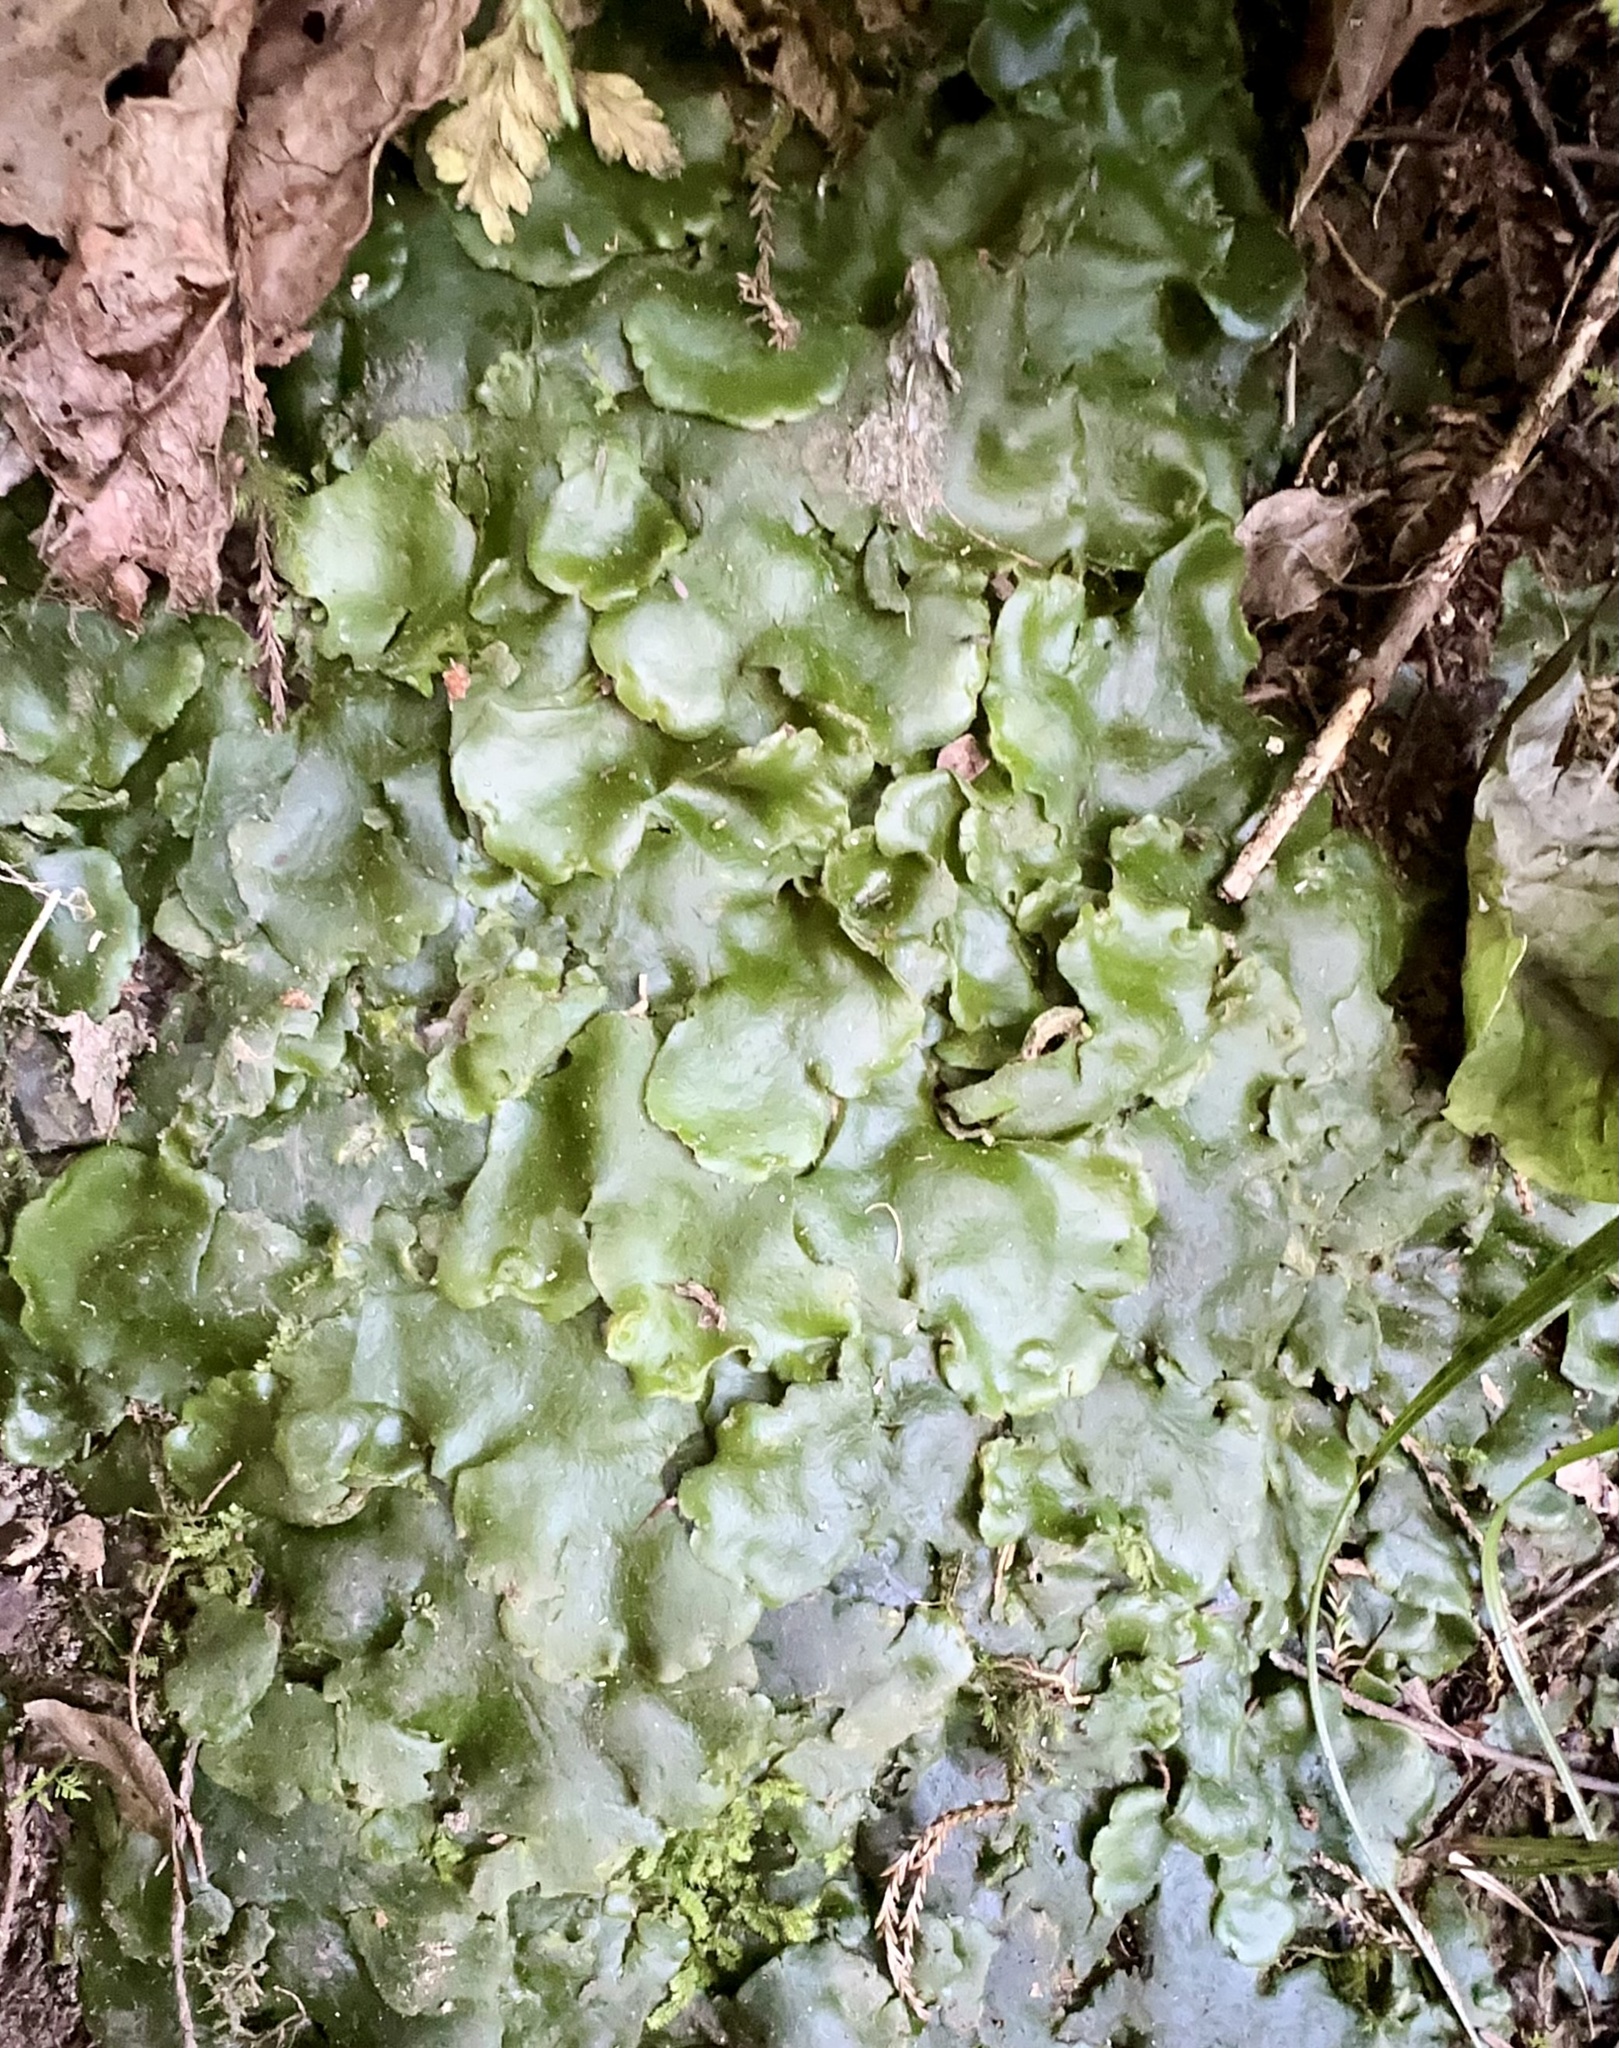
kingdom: Plantae
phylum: Marchantiophyta
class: Marchantiopsida
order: Marchantiales
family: Monocleaceae
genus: Monoclea
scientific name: Monoclea forsteri
